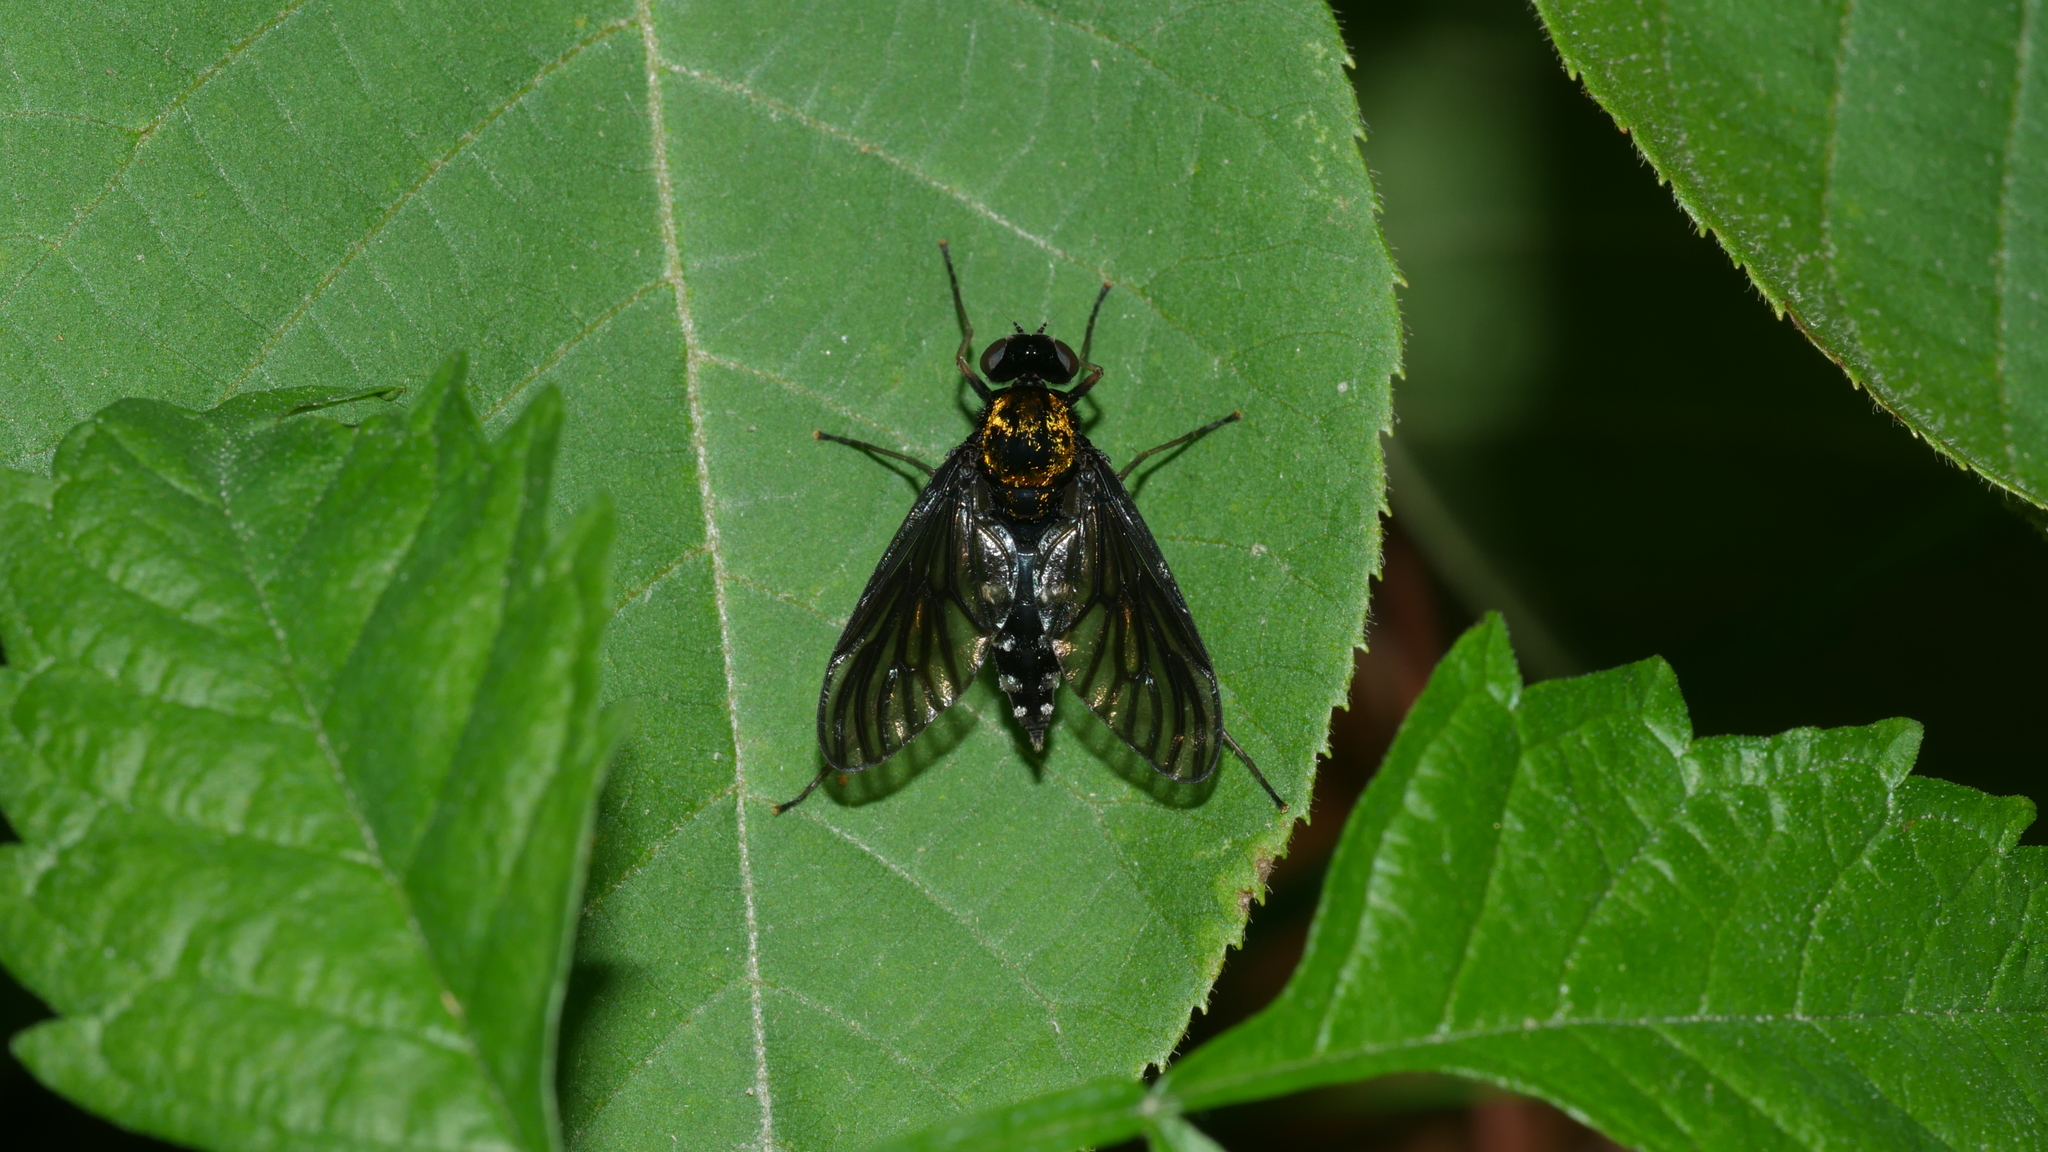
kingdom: Animalia
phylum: Arthropoda
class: Insecta
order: Diptera
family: Rhagionidae
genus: Chrysopilus
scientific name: Chrysopilus thoracicus
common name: Golden-backed snipe fly
